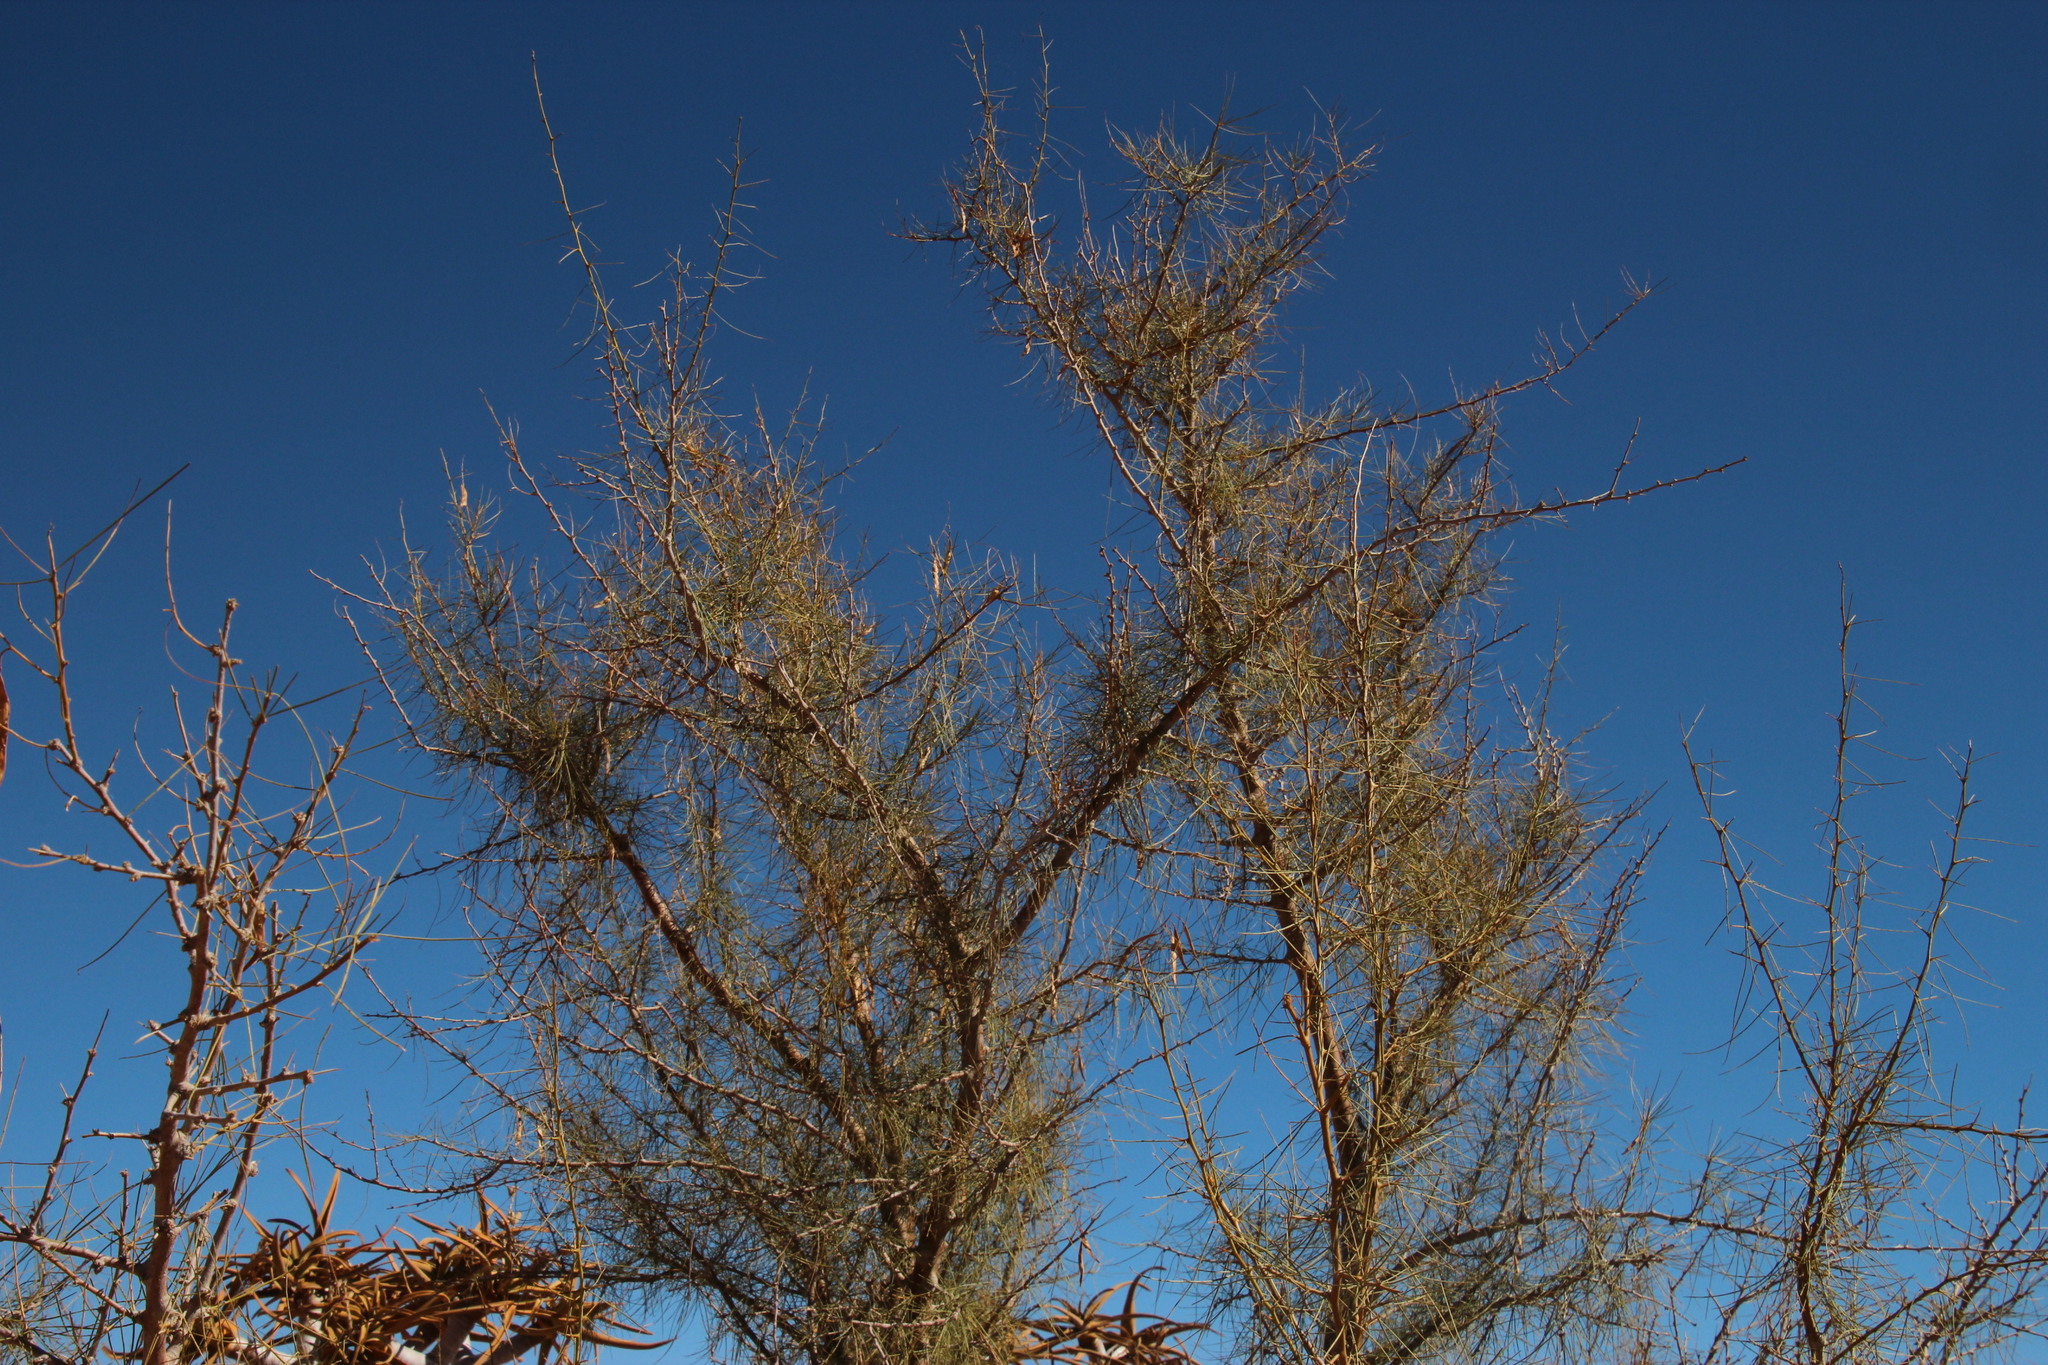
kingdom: Plantae
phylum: Tracheophyta
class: Magnoliopsida
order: Fabales
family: Fabaceae
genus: Parkinsonia
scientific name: Parkinsonia africana
